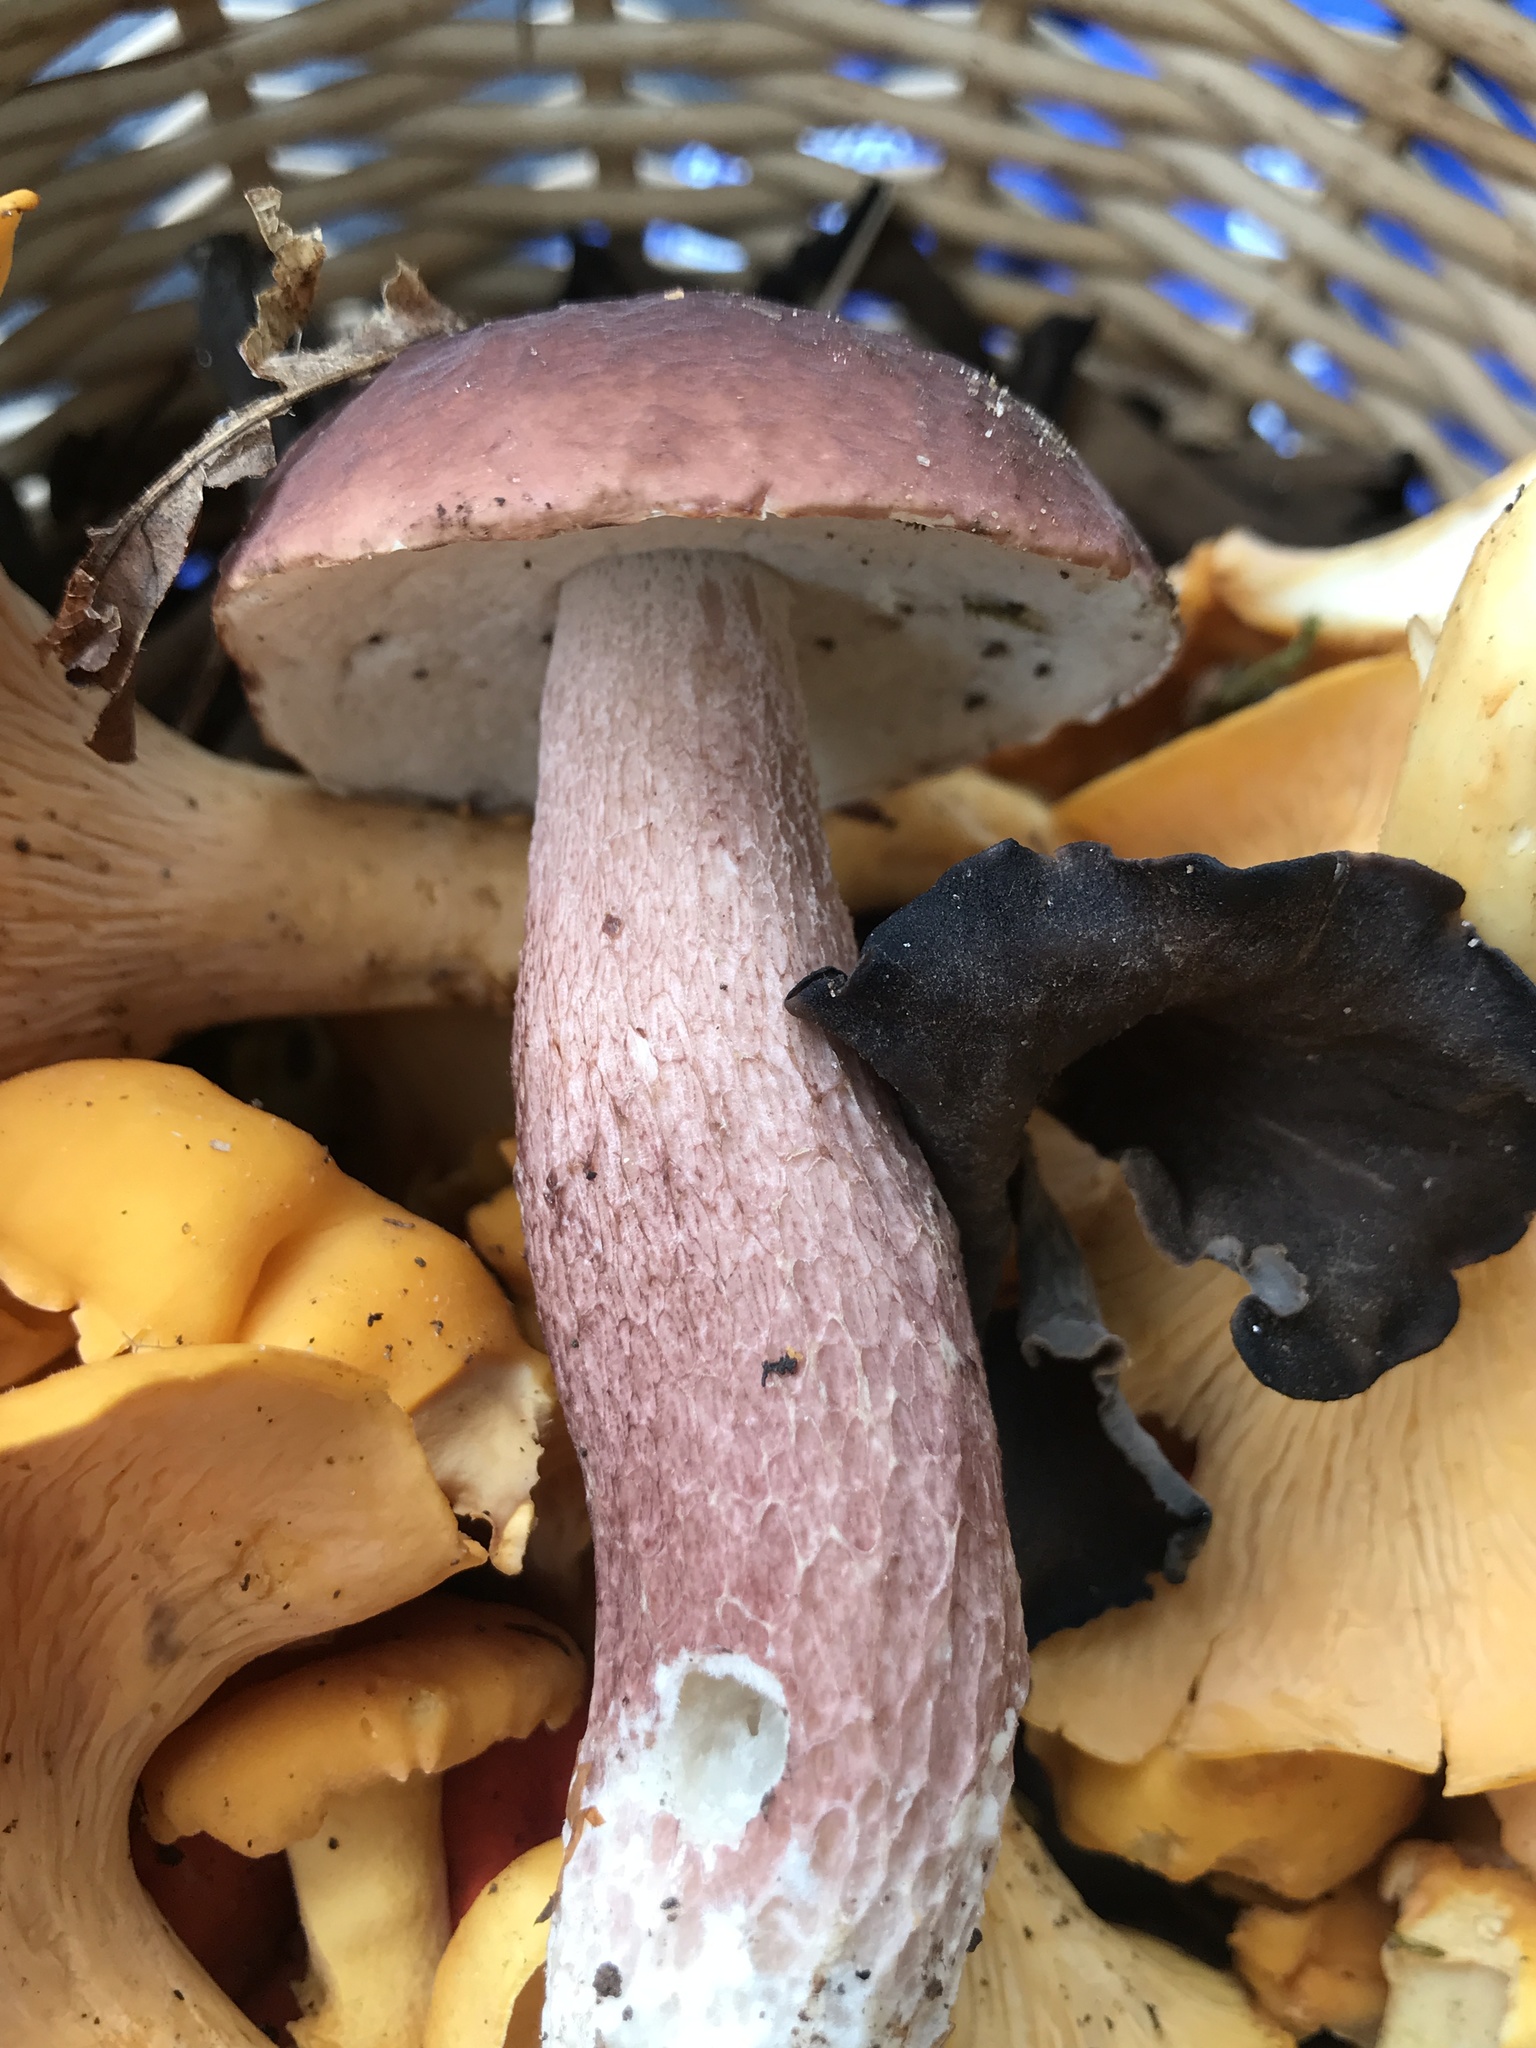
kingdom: Fungi
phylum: Basidiomycota
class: Agaricomycetes
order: Boletales
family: Boletaceae
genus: Xanthoconium
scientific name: Xanthoconium separans
